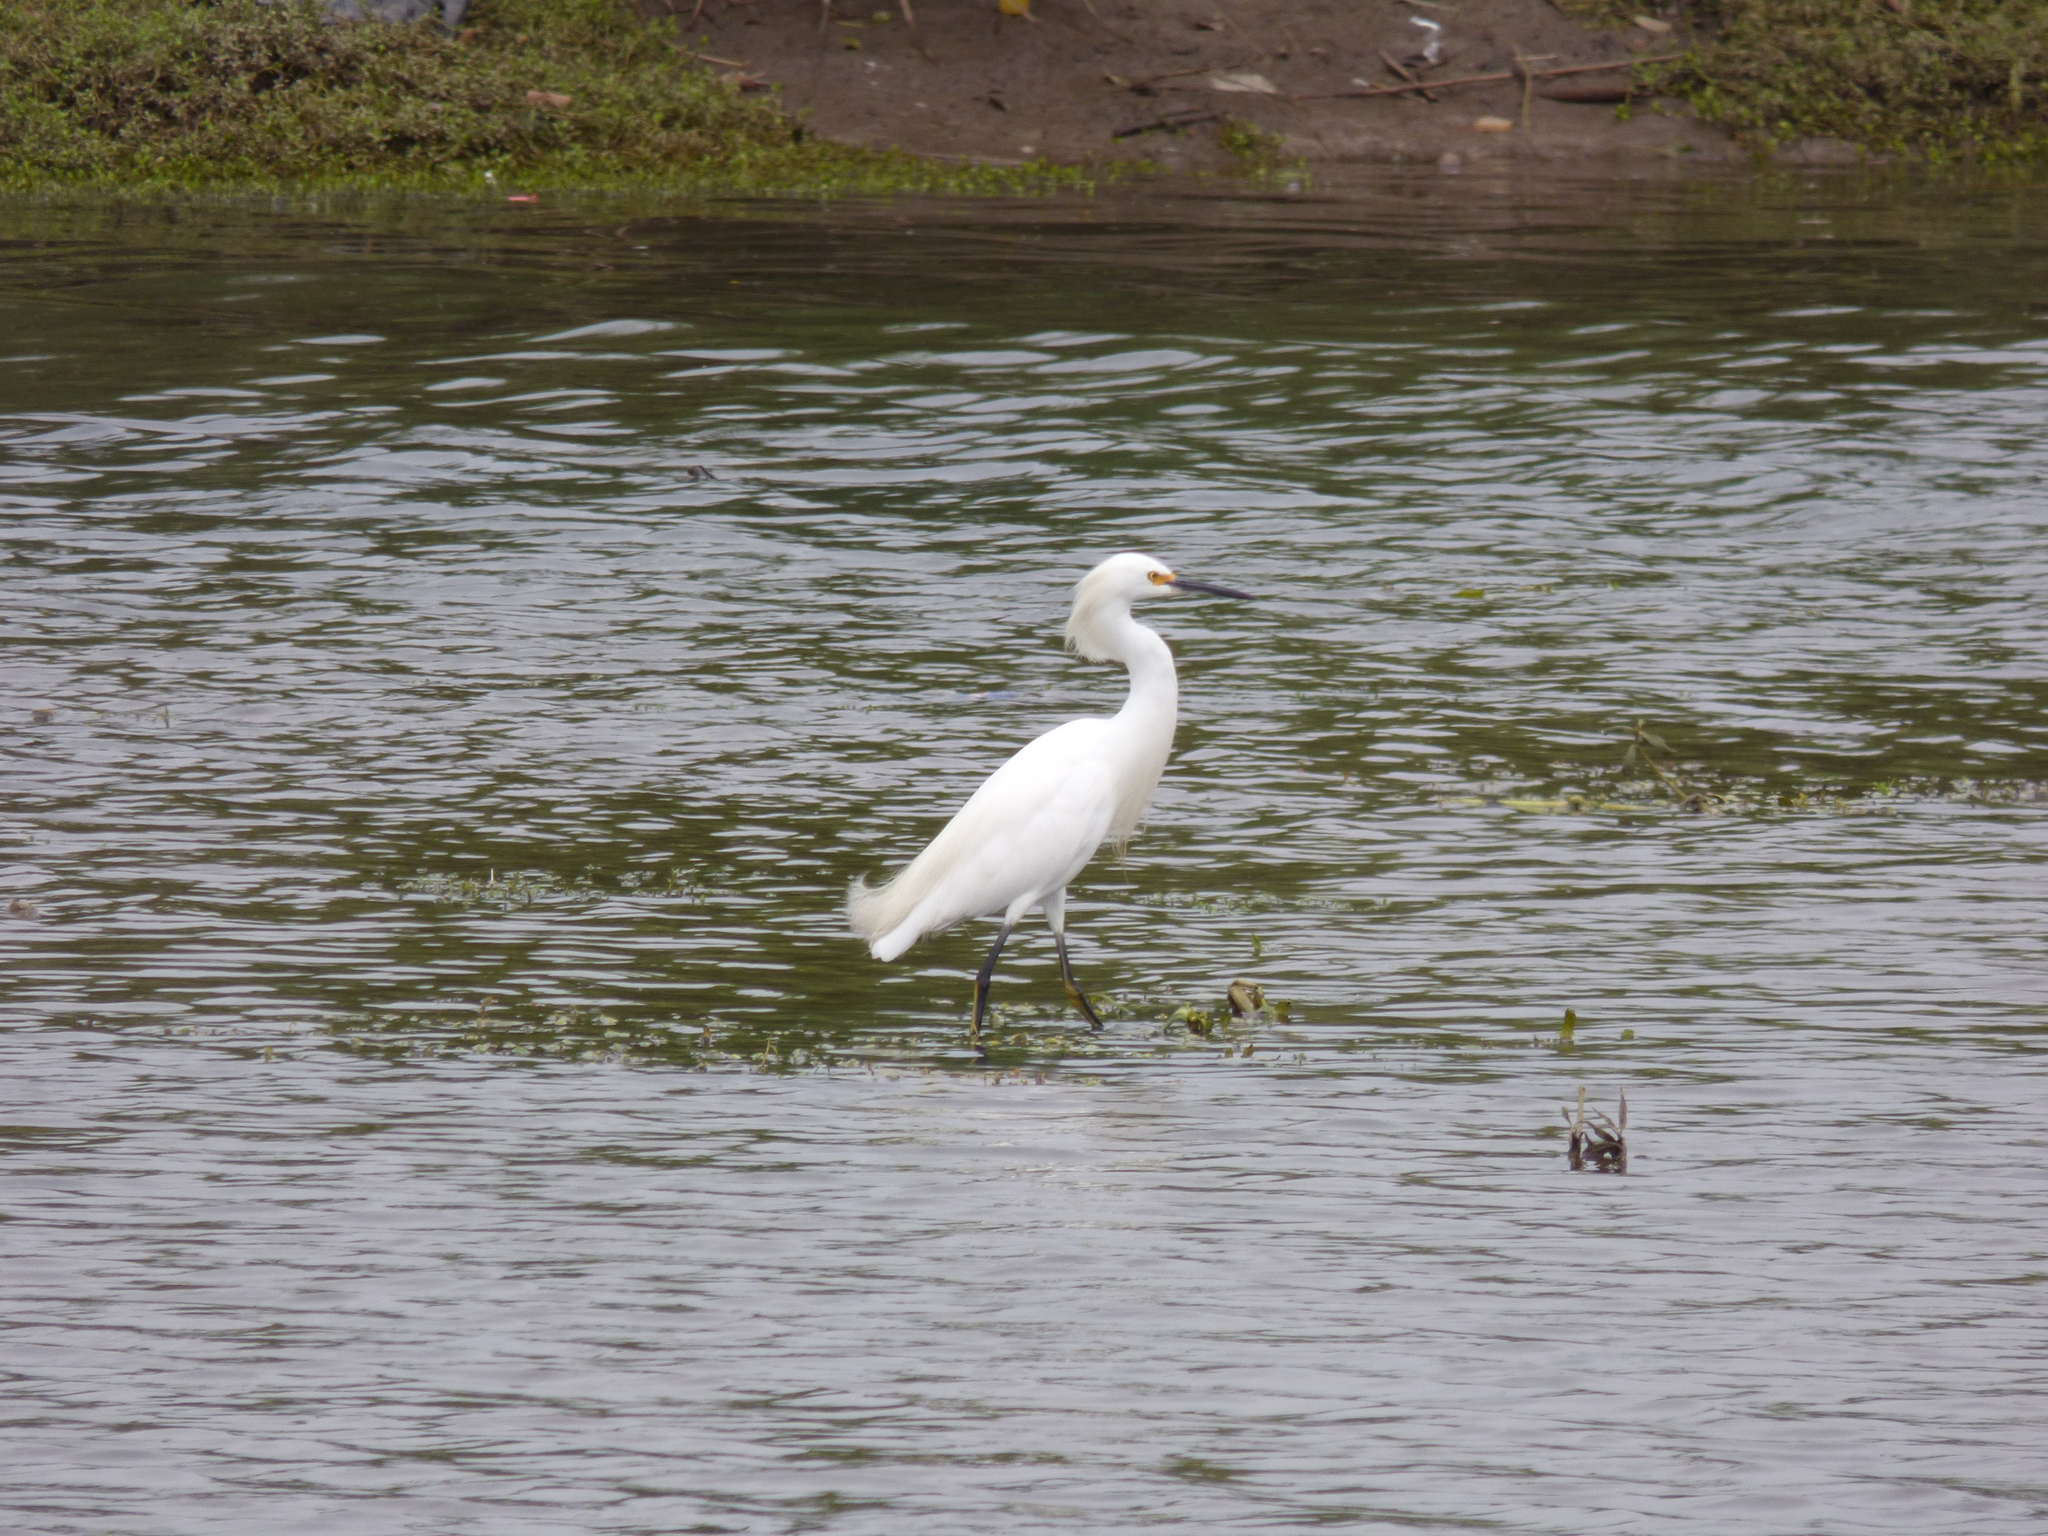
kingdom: Animalia
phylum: Chordata
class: Aves
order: Pelecaniformes
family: Ardeidae
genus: Egretta
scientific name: Egretta thula
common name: Snowy egret
